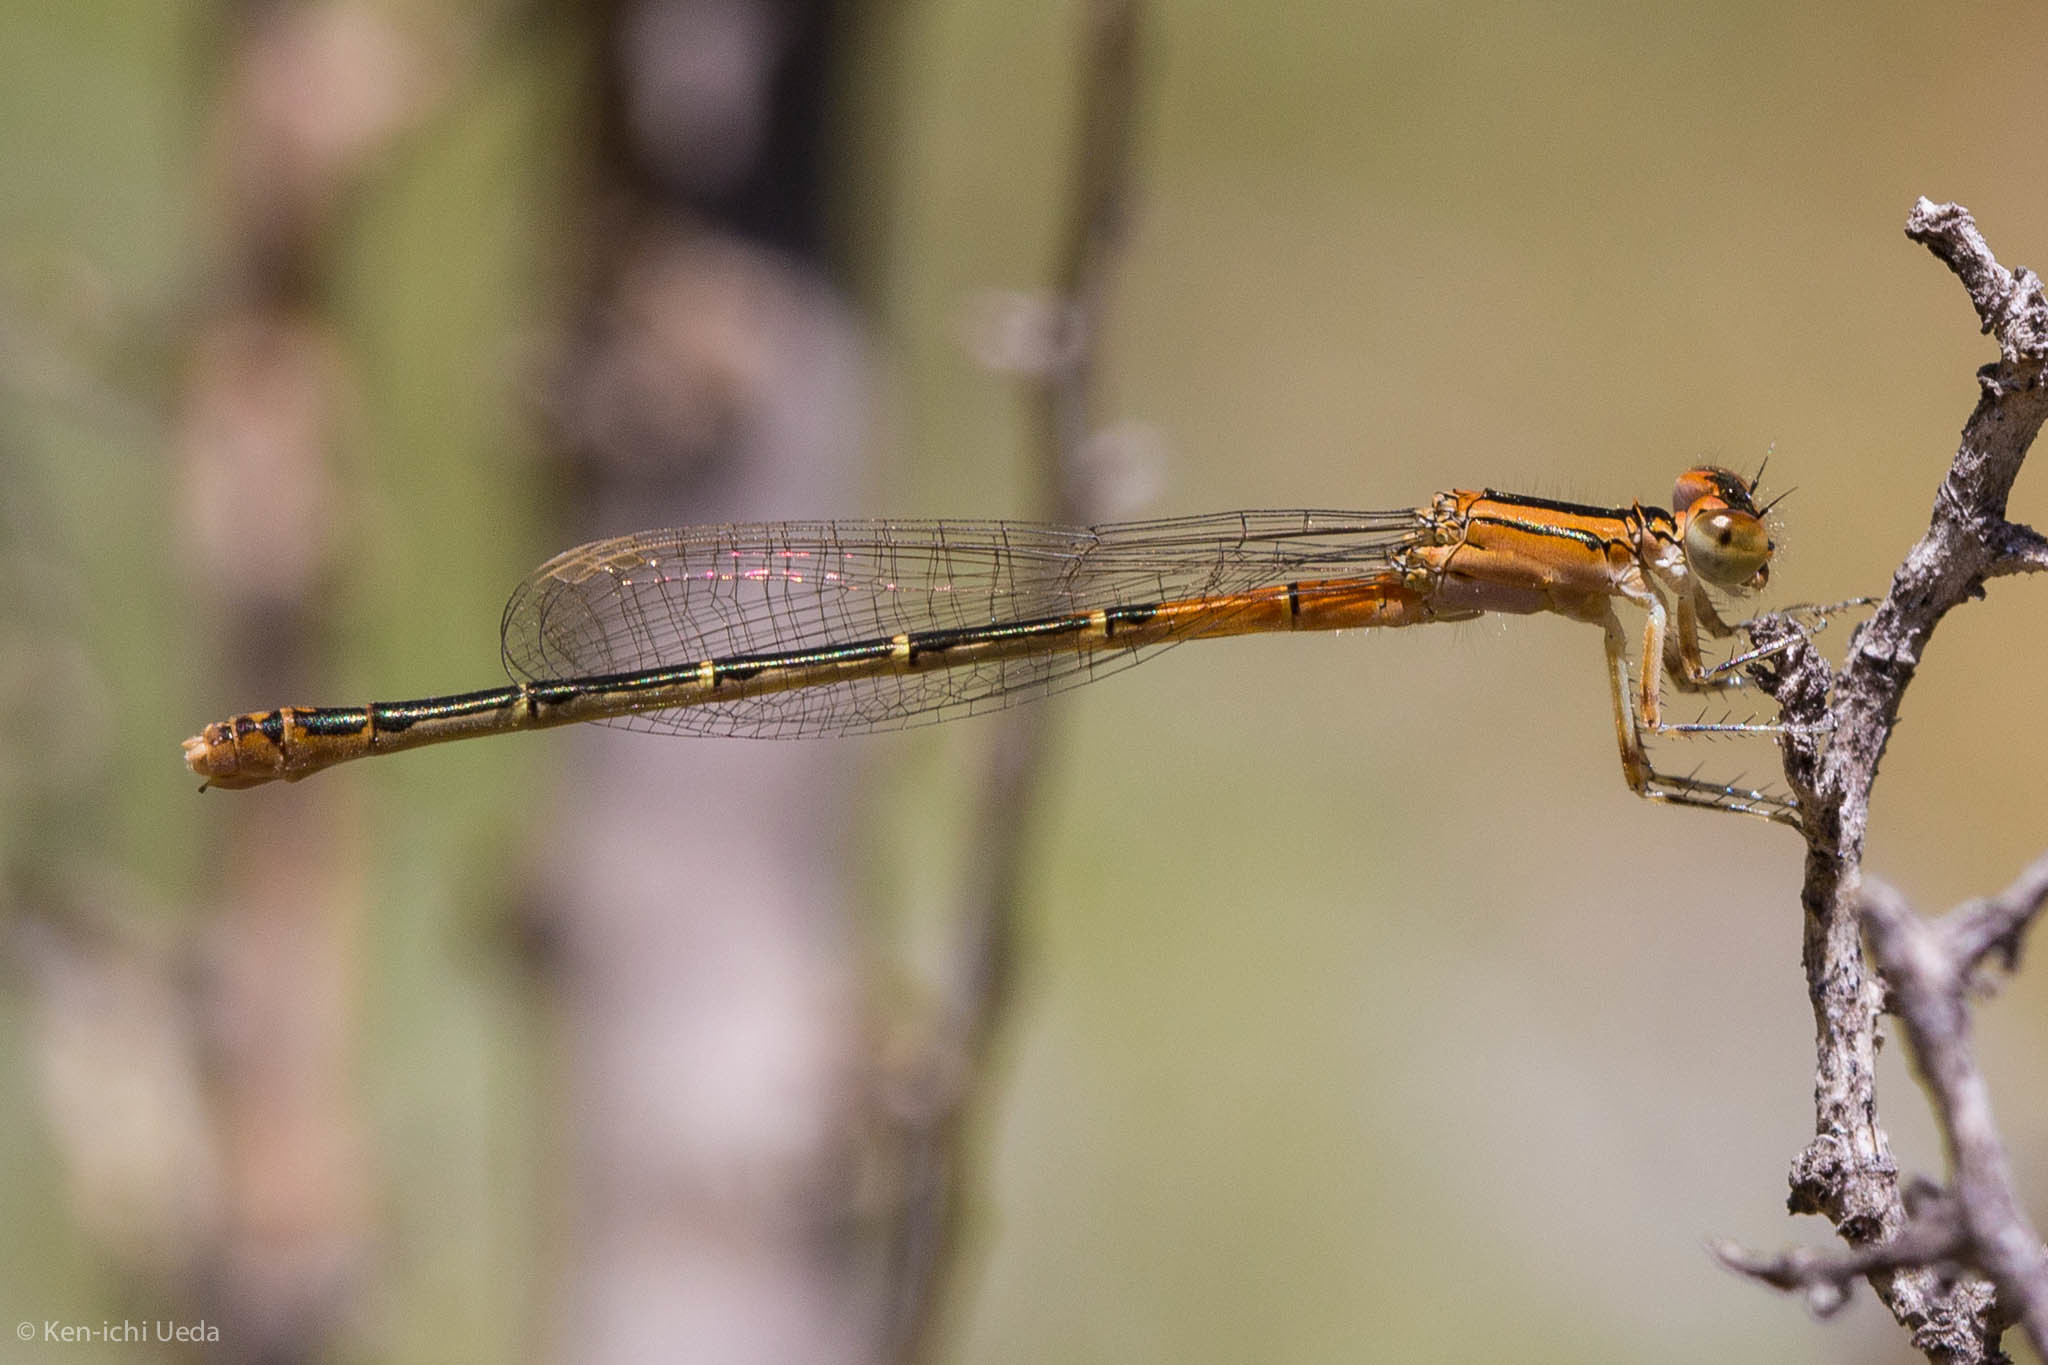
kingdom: Animalia
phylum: Arthropoda
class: Insecta
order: Odonata
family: Coenagrionidae
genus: Ischnura
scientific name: Ischnura perparva
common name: Western forktail
